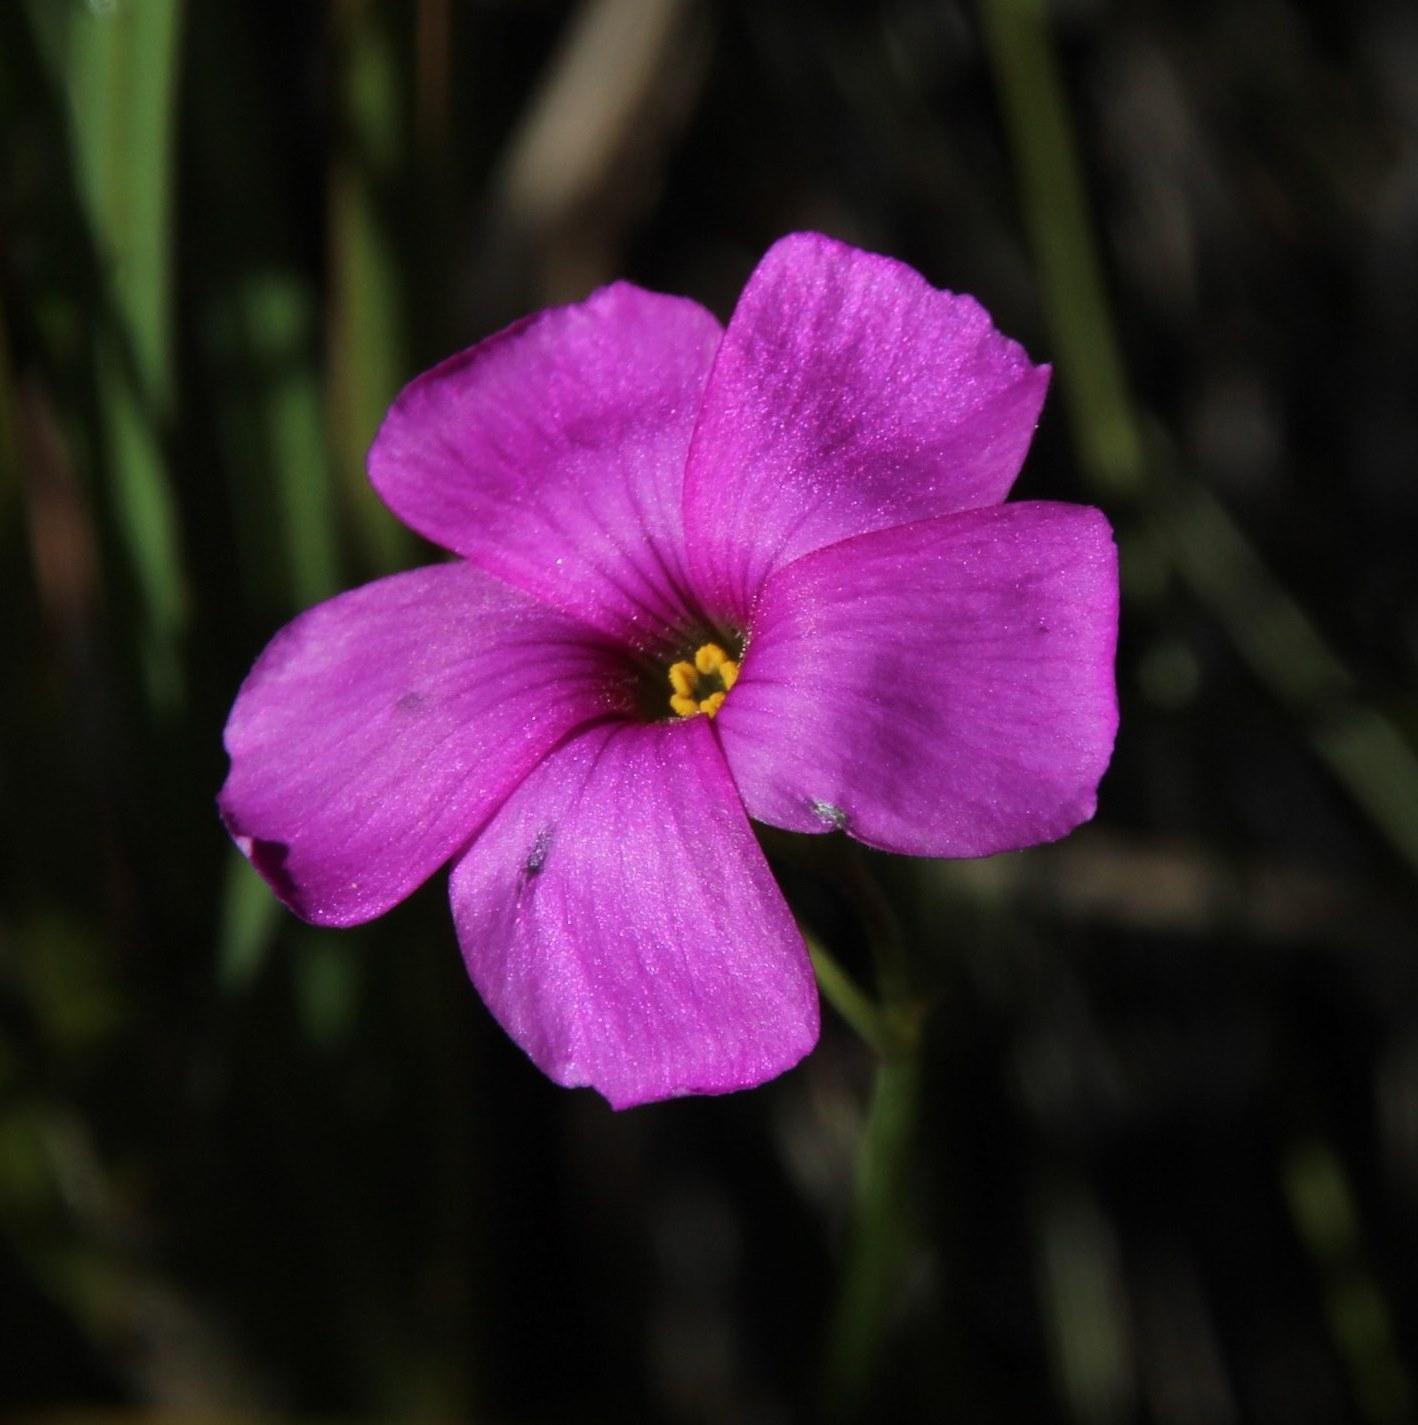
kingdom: Plantae
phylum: Tracheophyta
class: Magnoliopsida
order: Oxalidales
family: Oxalidaceae
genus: Oxalis
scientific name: Oxalis livida
